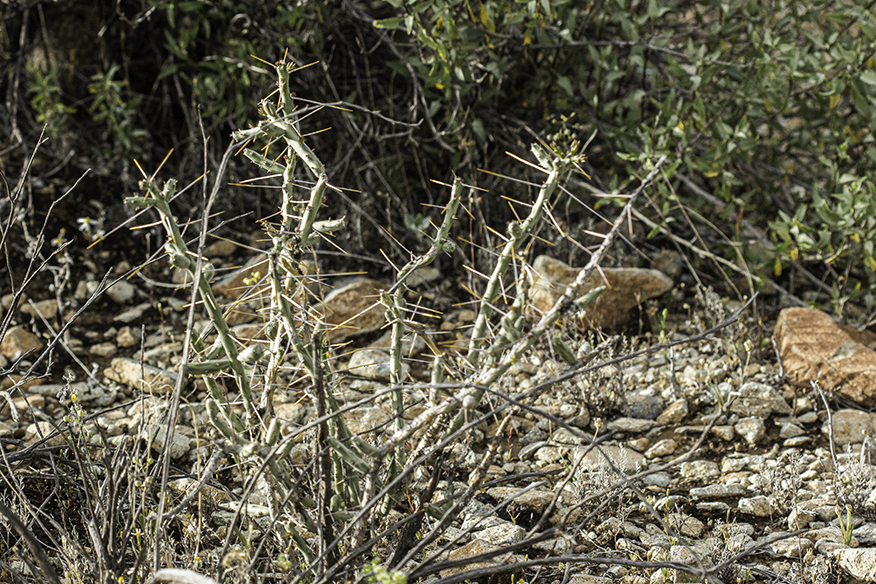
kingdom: Plantae
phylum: Tracheophyta
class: Magnoliopsida
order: Caryophyllales
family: Cactaceae
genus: Cylindropuntia
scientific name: Cylindropuntia leptocaulis
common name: Christmas cactus
